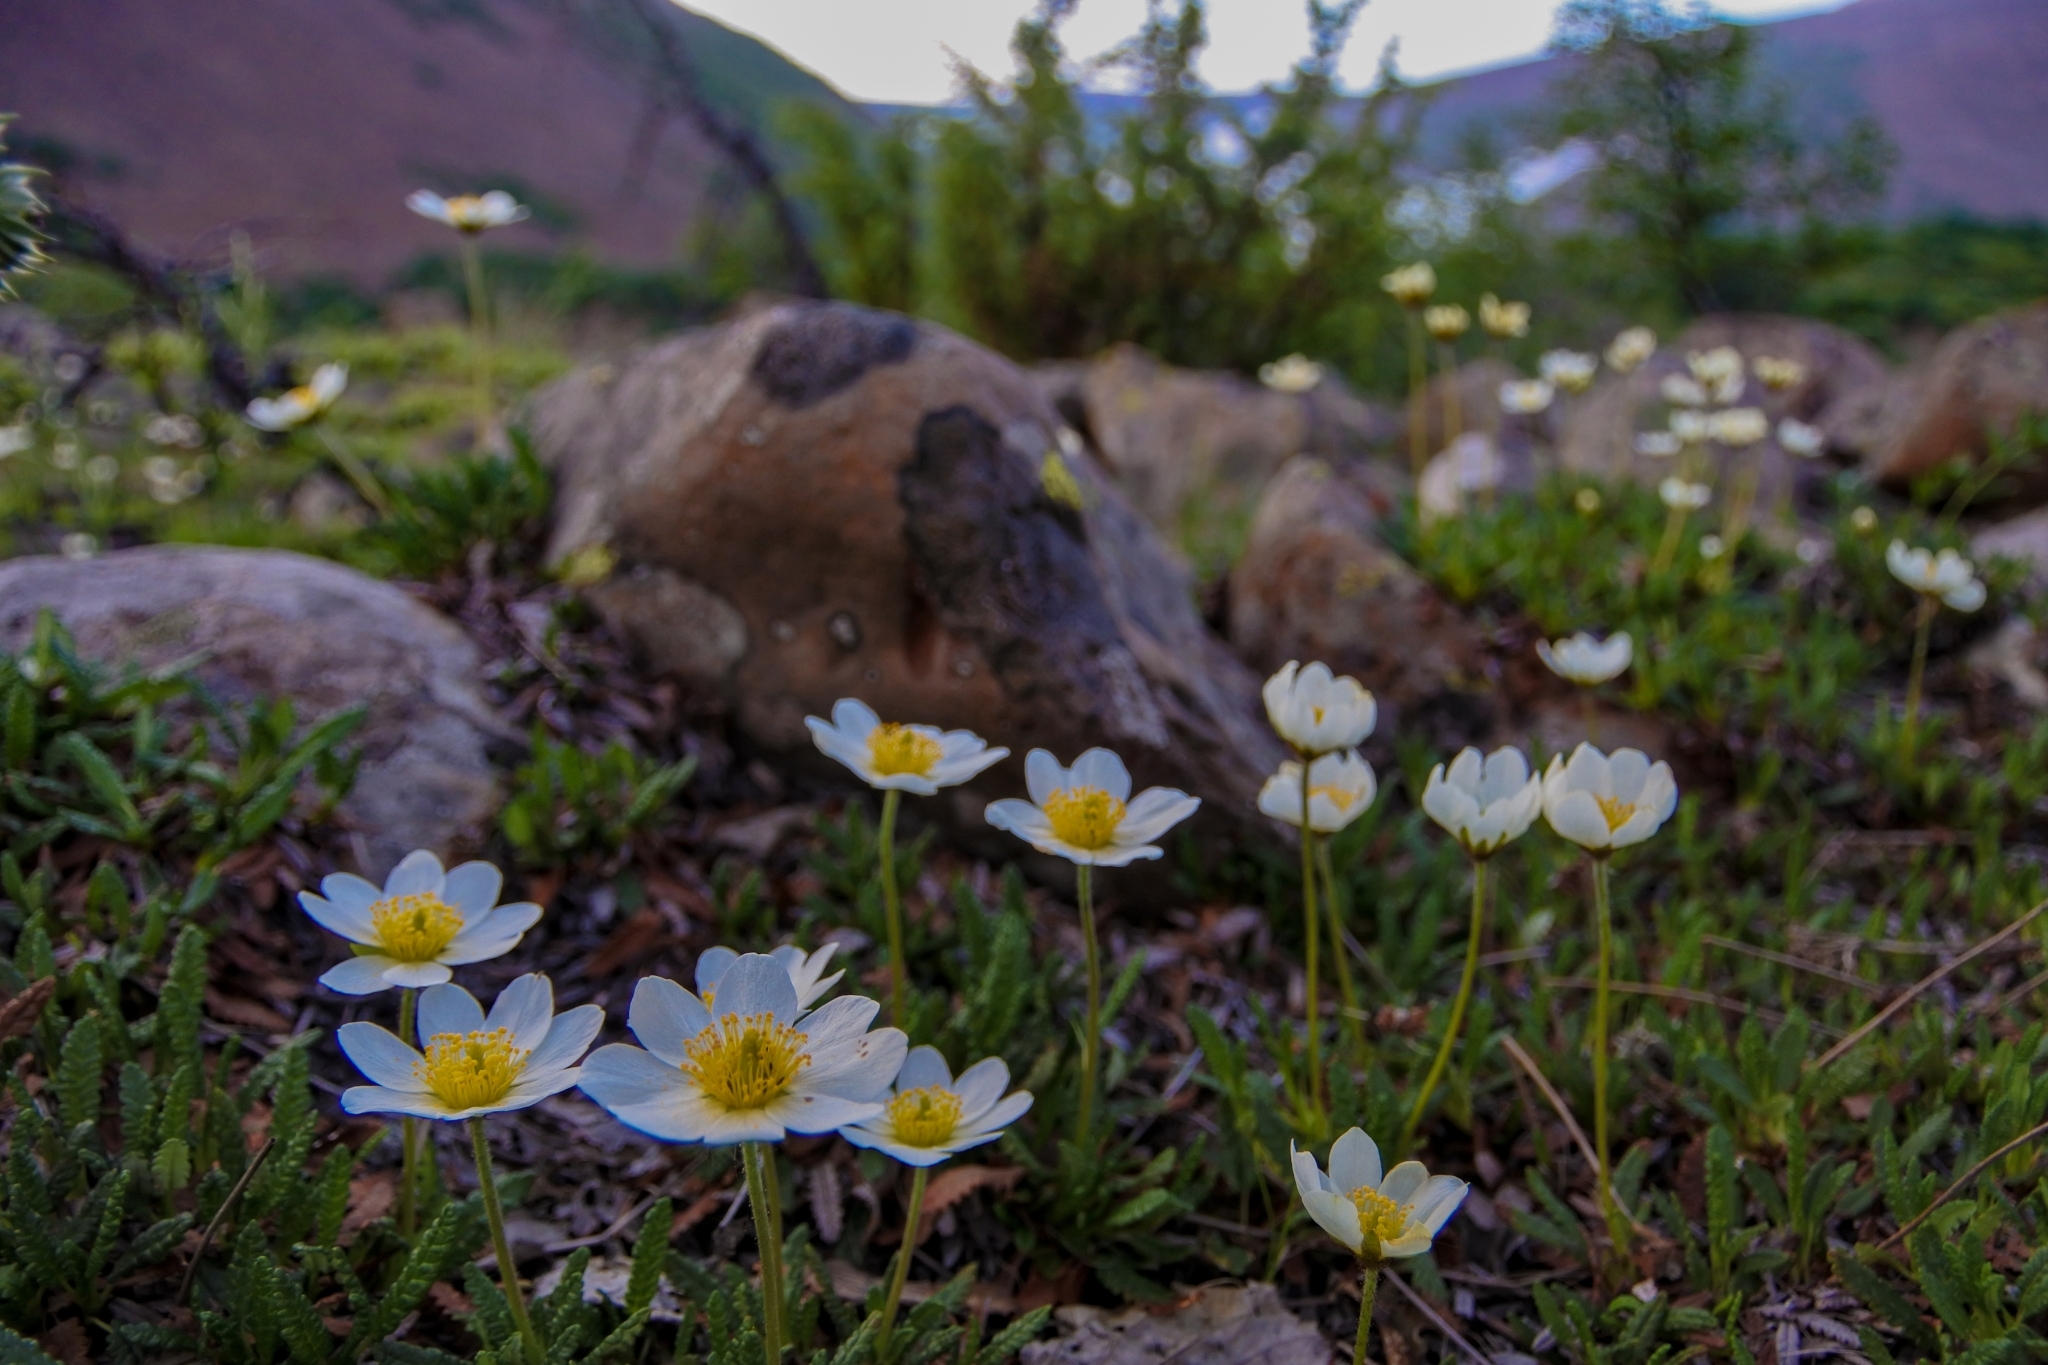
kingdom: Plantae
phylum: Tracheophyta
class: Magnoliopsida
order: Rosales
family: Rosaceae
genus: Dryas
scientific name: Dryas octopetala
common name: Eight-petal mountain-avens
